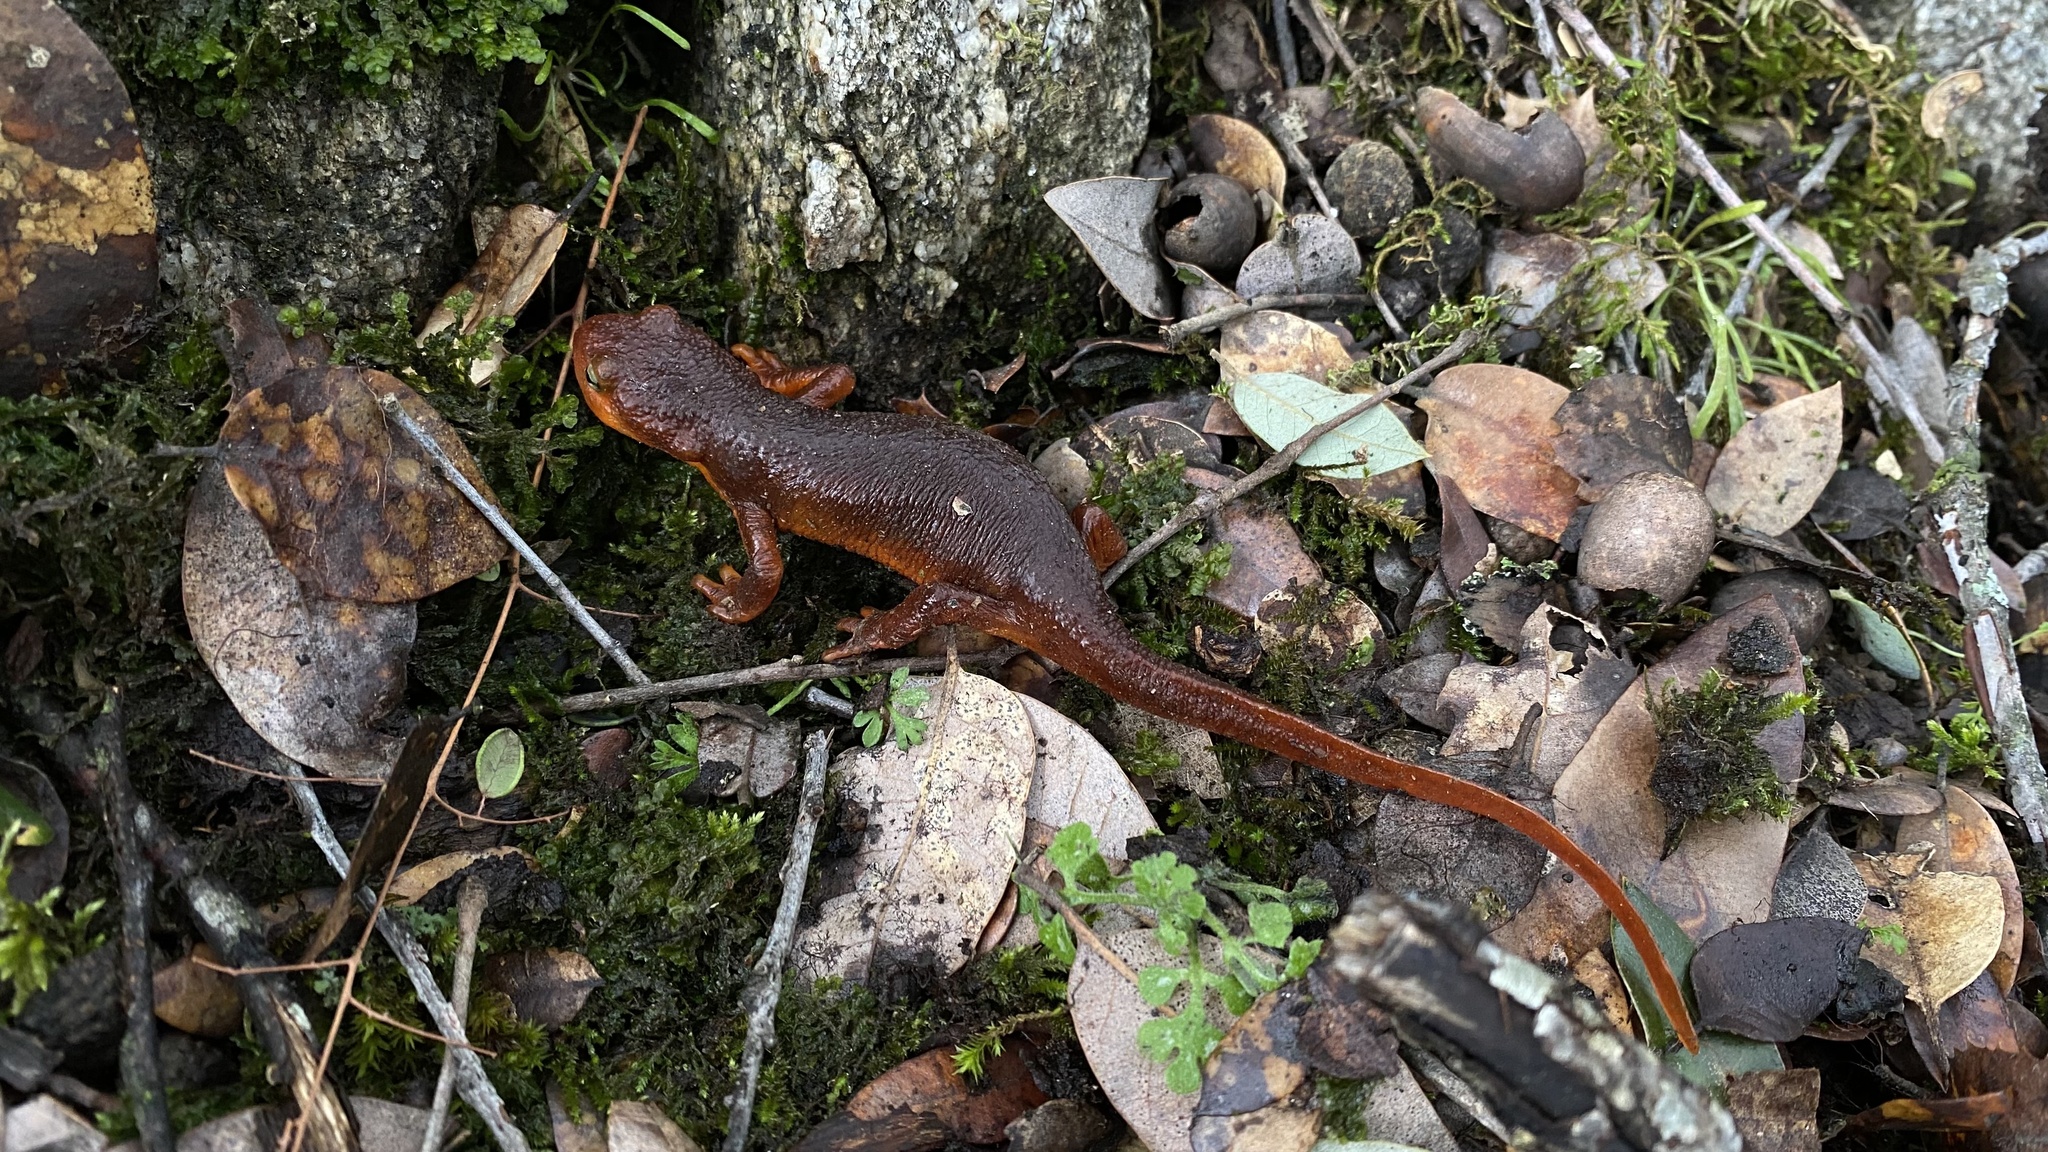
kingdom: Animalia
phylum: Chordata
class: Amphibia
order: Caudata
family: Salamandridae
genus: Taricha
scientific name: Taricha torosa
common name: California newt
